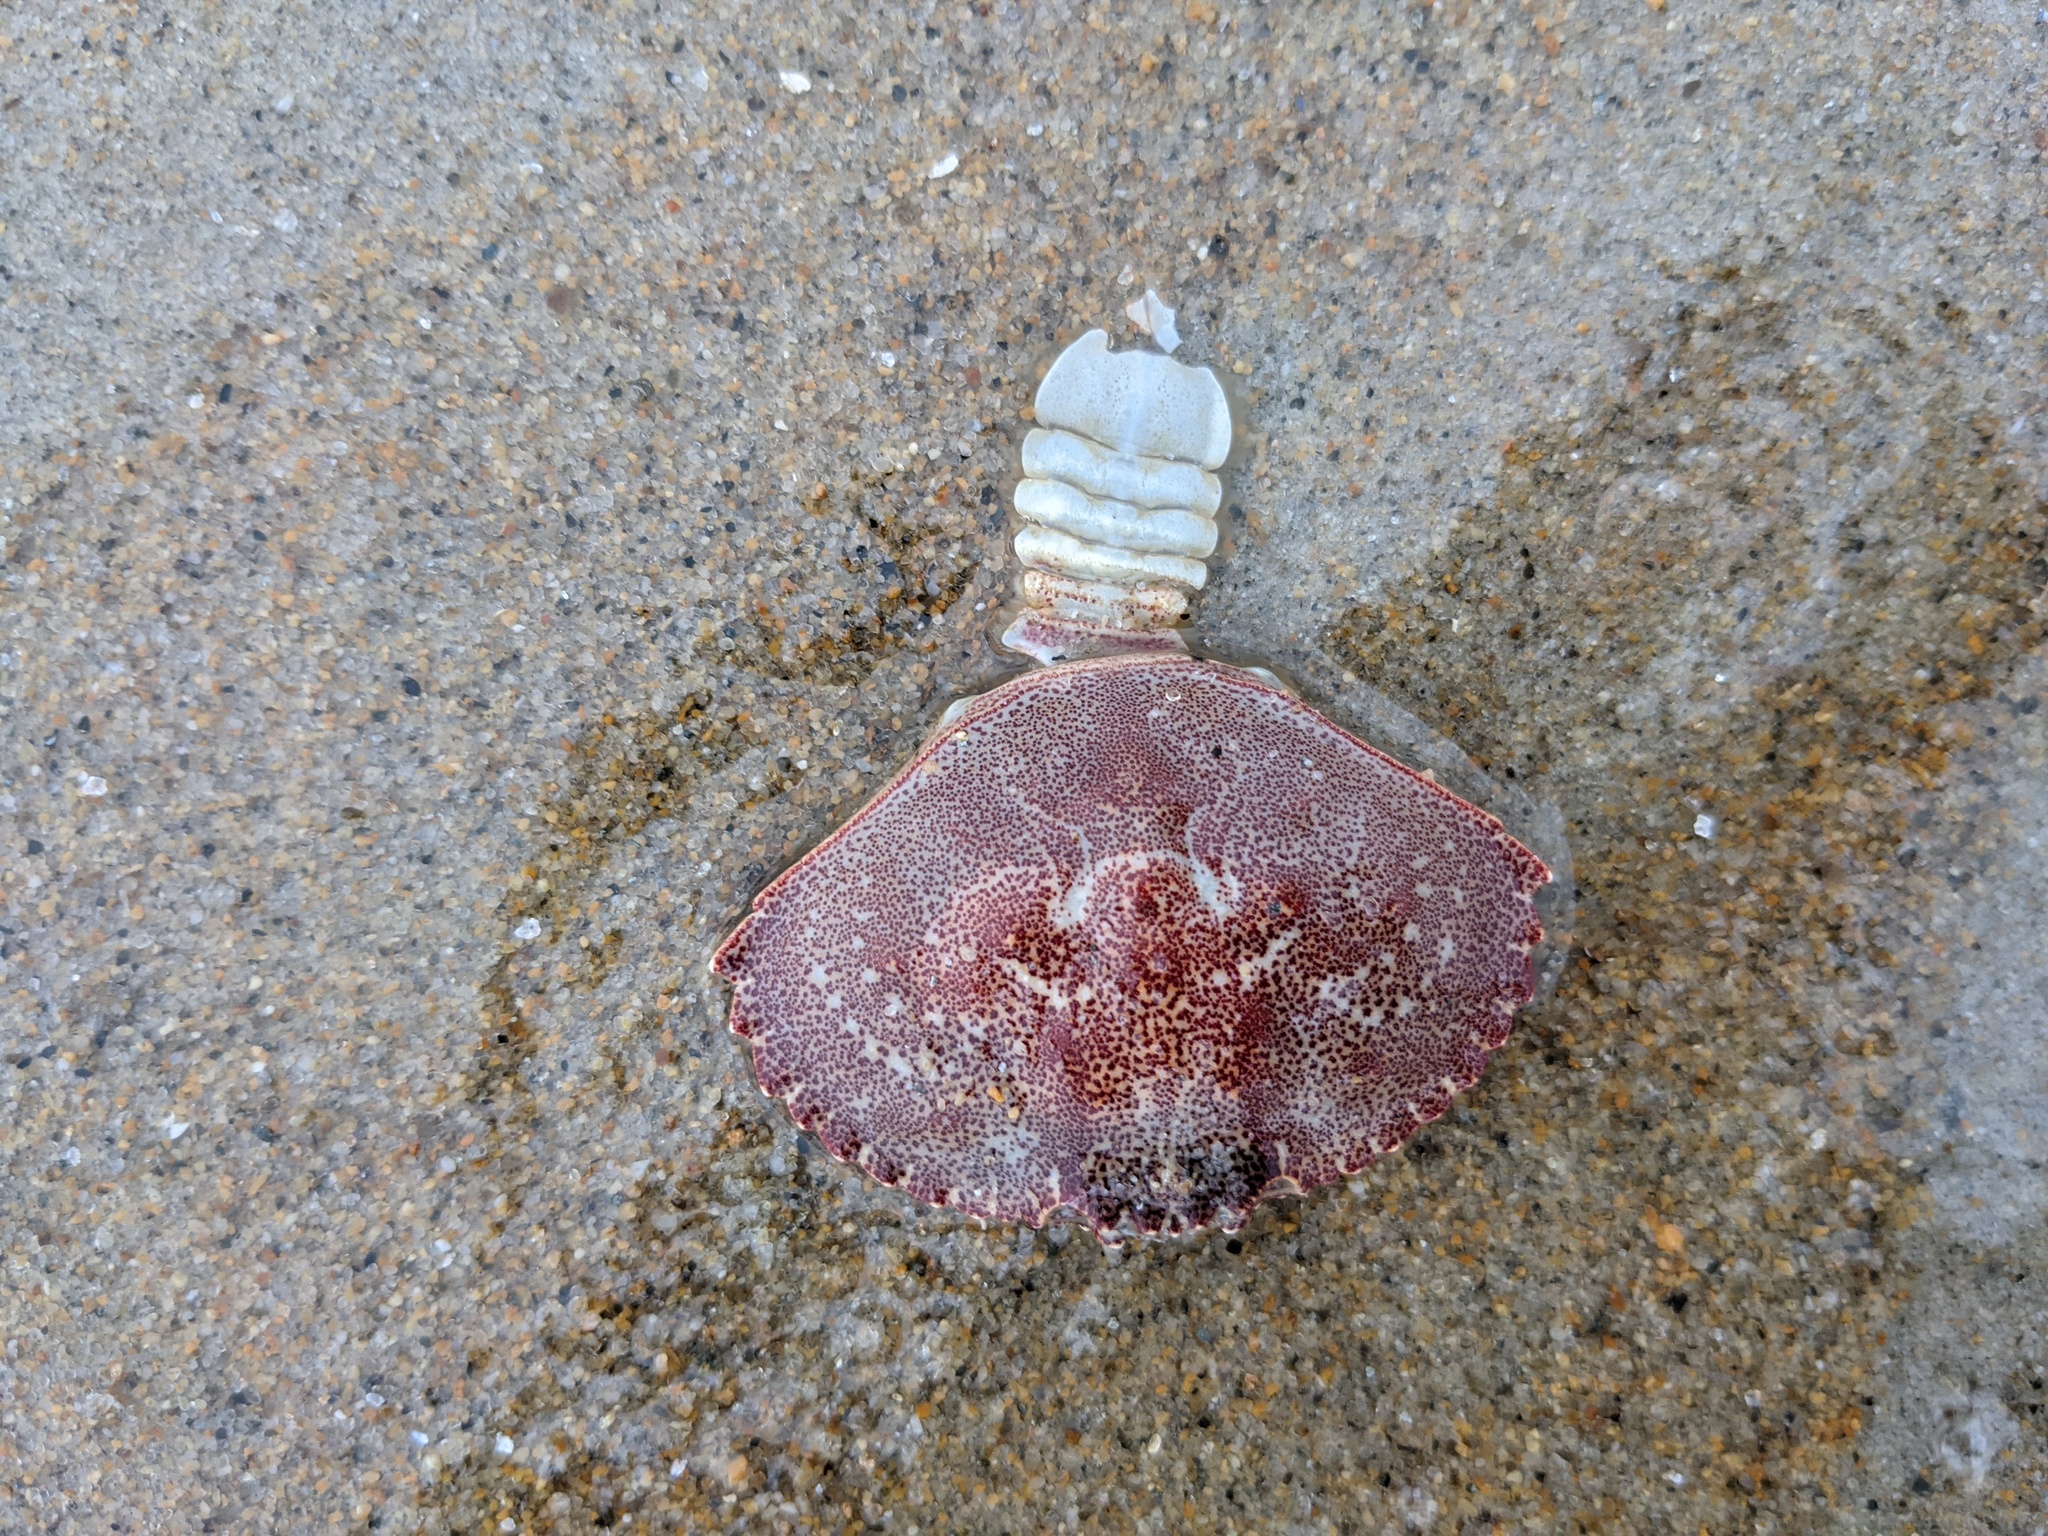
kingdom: Animalia
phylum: Arthropoda
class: Malacostraca
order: Decapoda
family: Cancridae
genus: Cancer
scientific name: Cancer irroratus
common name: Atlantic rock crab
